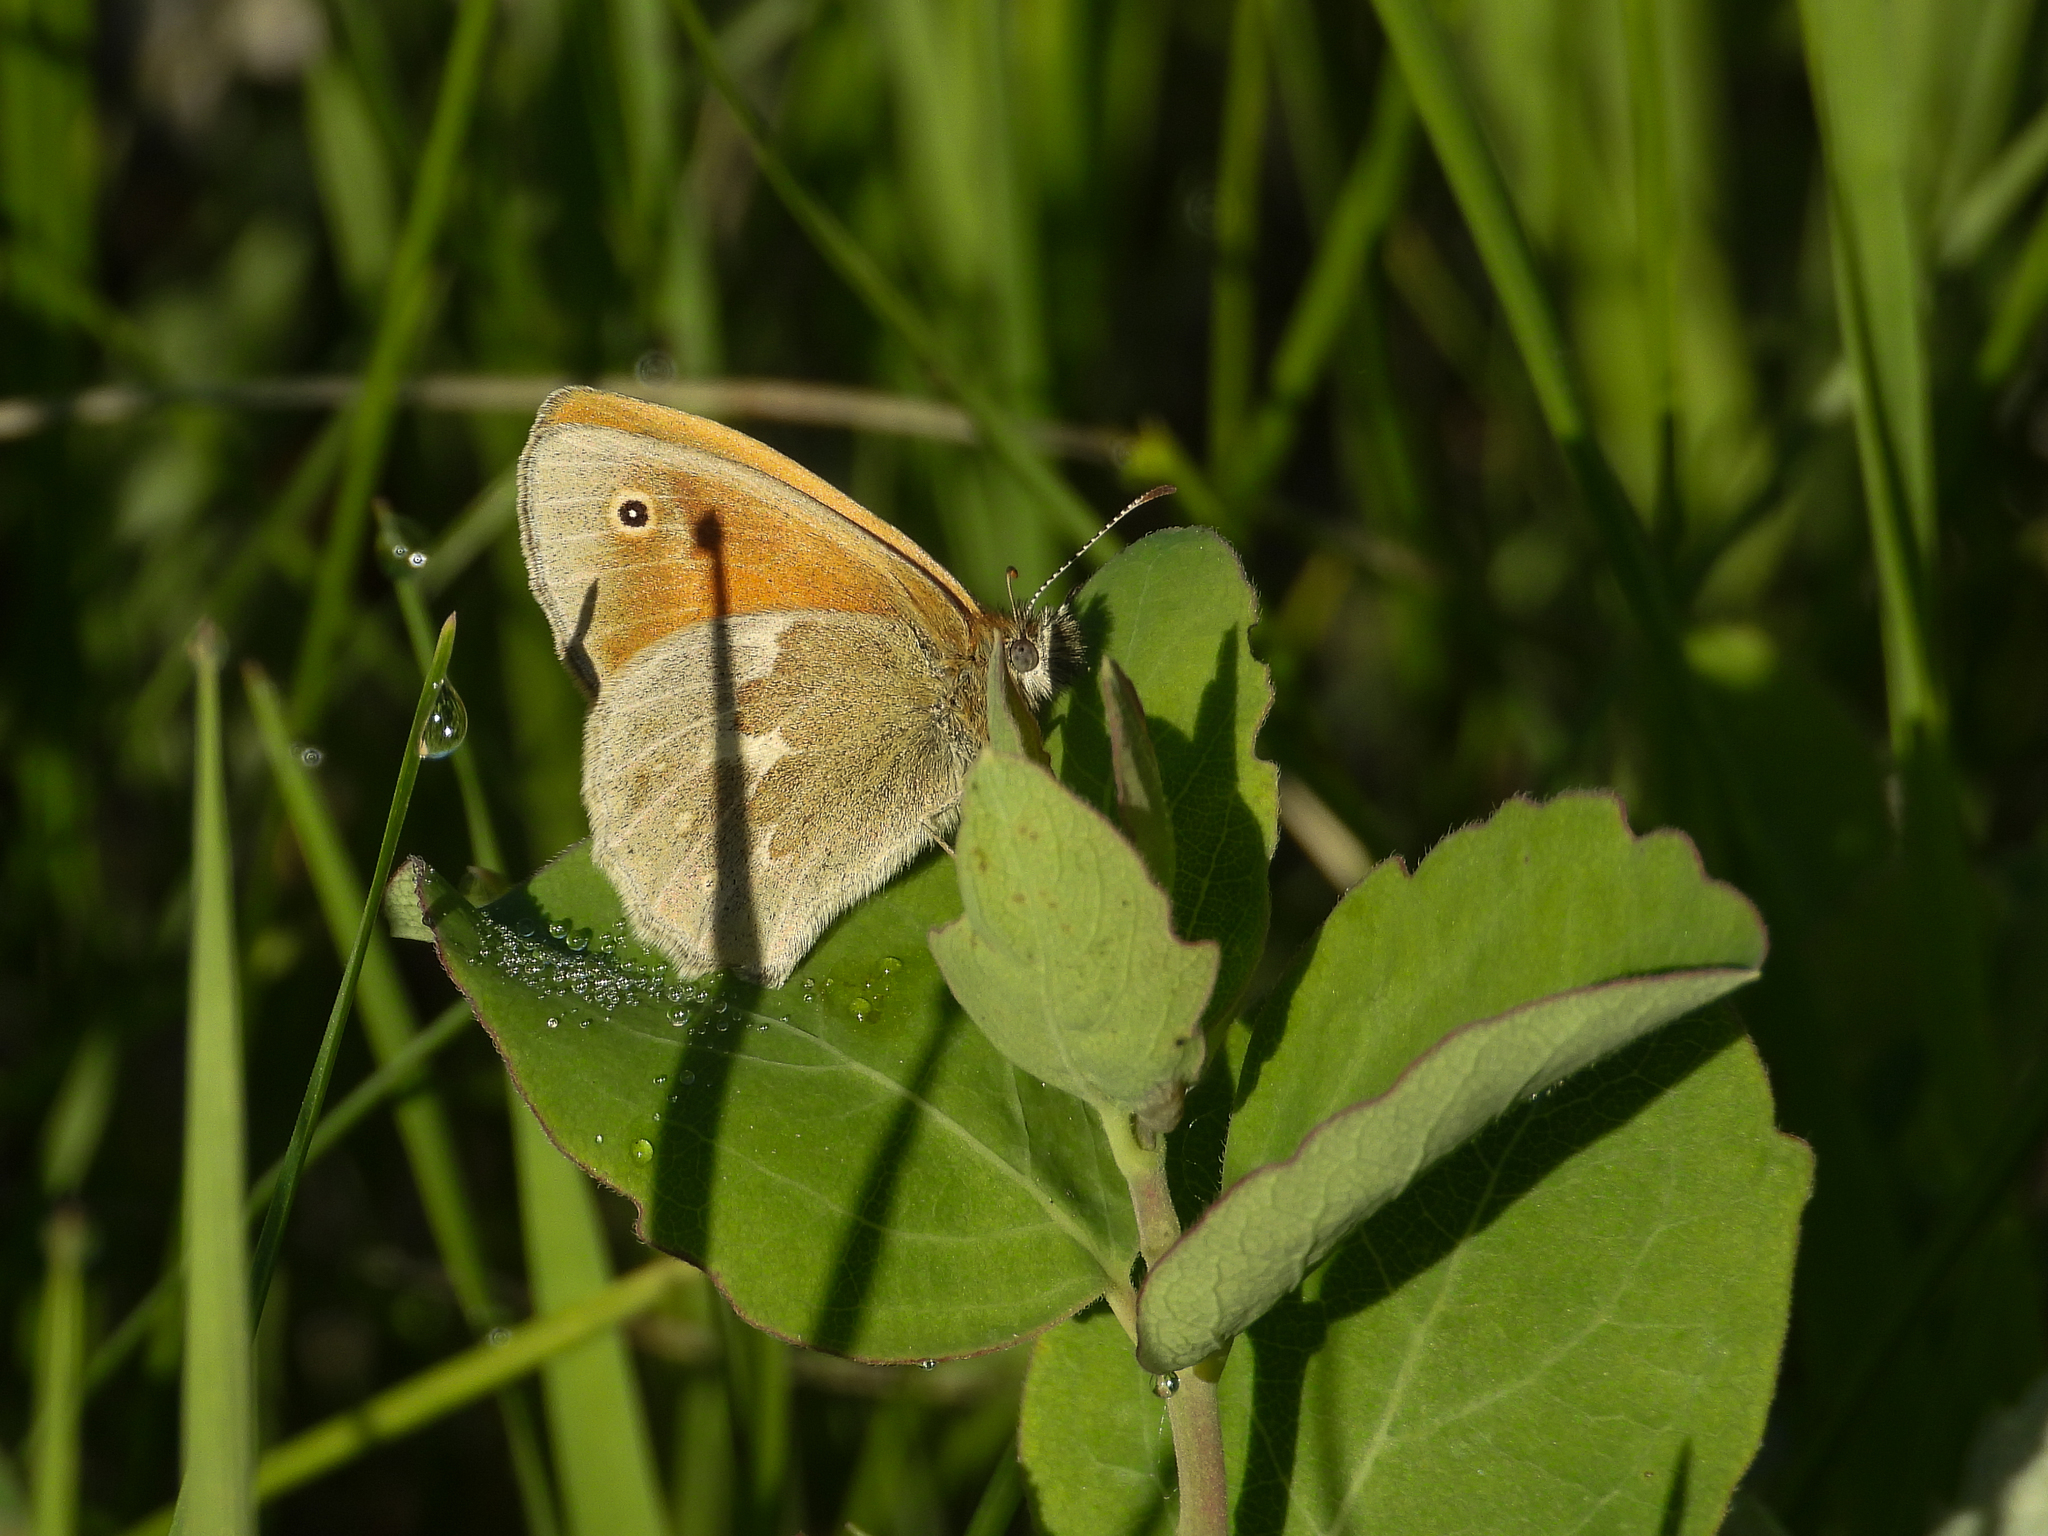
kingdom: Animalia
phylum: Arthropoda
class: Insecta
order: Lepidoptera
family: Nymphalidae
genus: Coenonympha
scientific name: Coenonympha california
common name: Common ringlet
